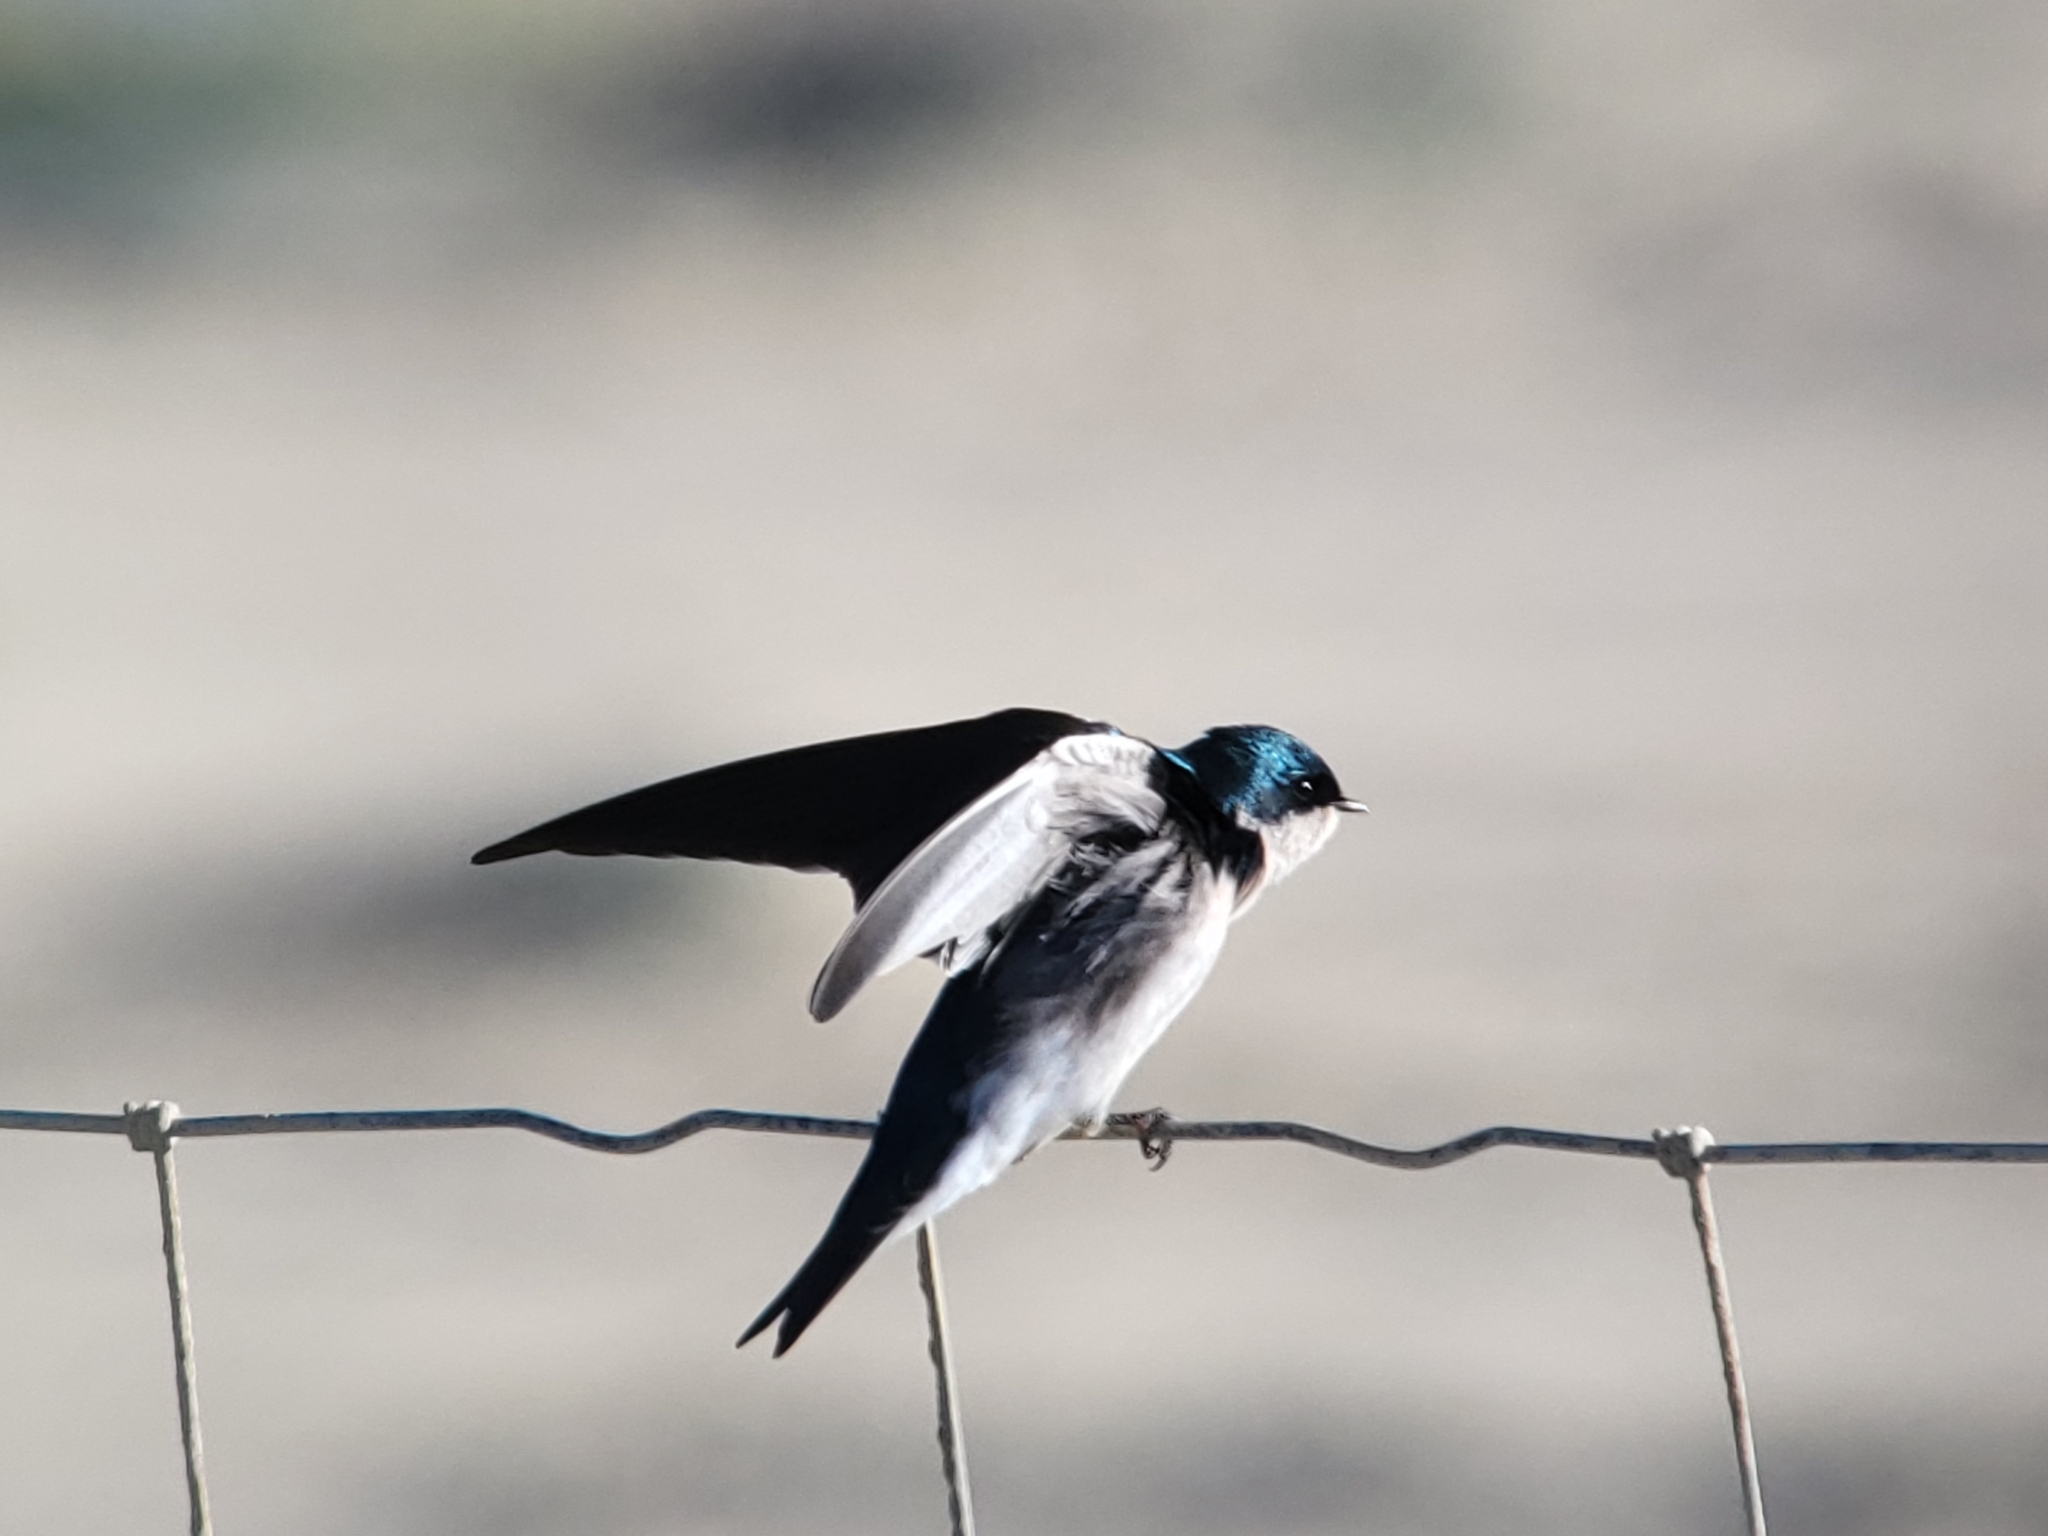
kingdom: Animalia
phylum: Chordata
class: Aves
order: Passeriformes
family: Hirundinidae
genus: Tachycineta
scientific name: Tachycineta bicolor
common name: Tree swallow
